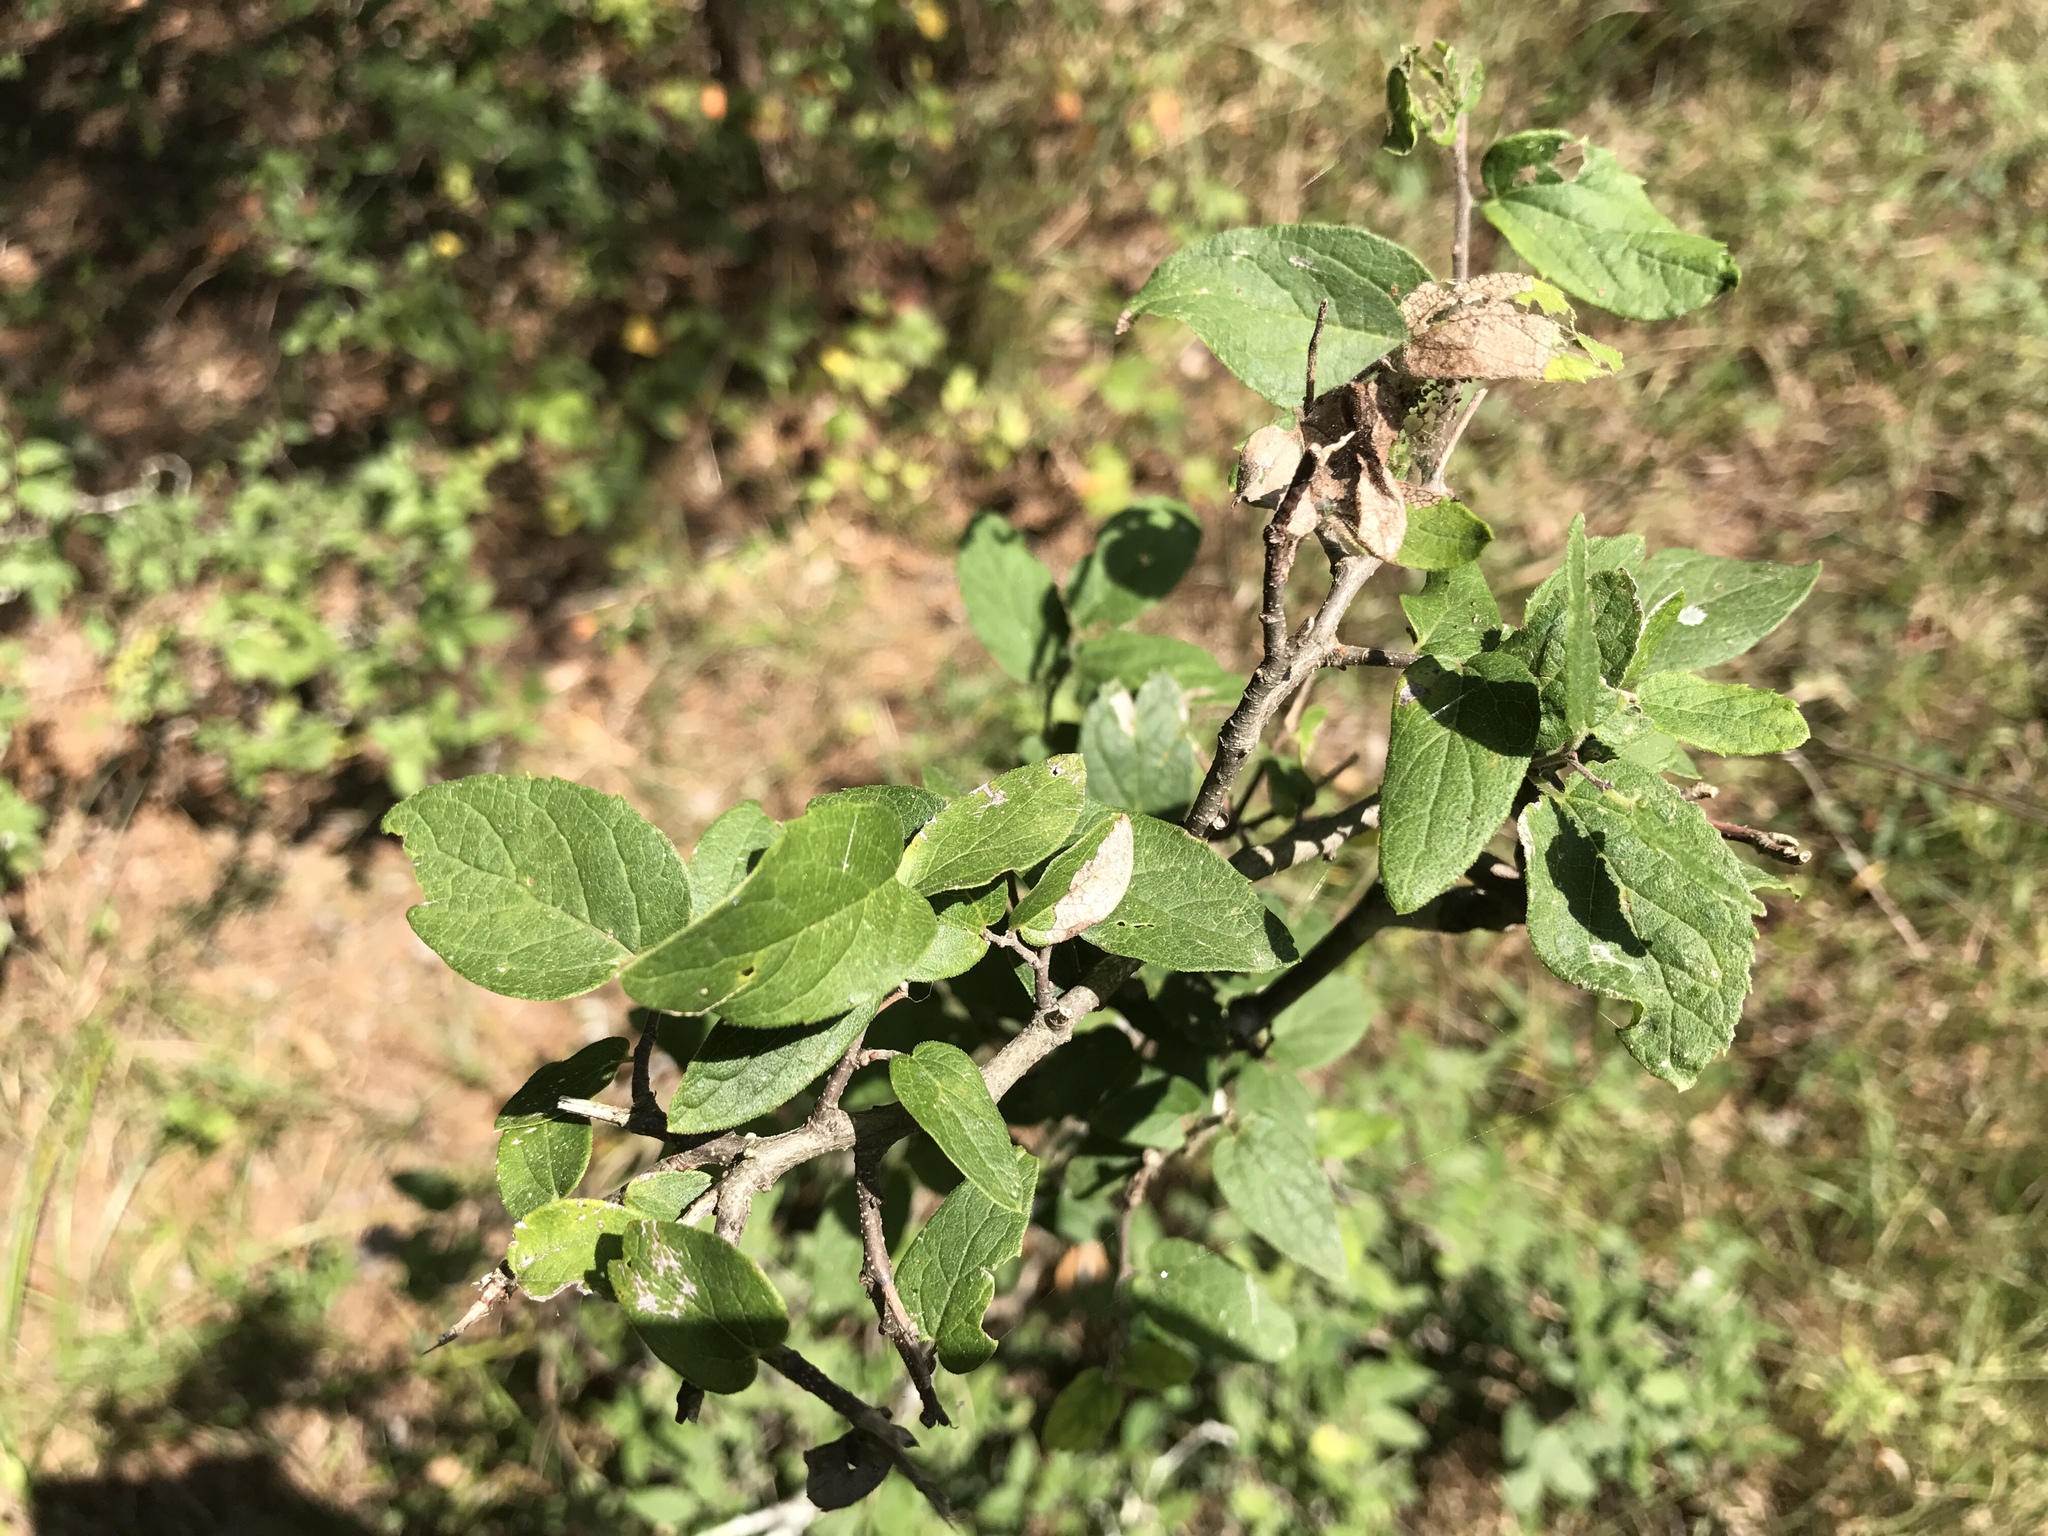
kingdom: Plantae
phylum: Tracheophyta
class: Magnoliopsida
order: Rosales
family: Cannabaceae
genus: Celtis
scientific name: Celtis tenuifolia
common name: Georgia hackberry
